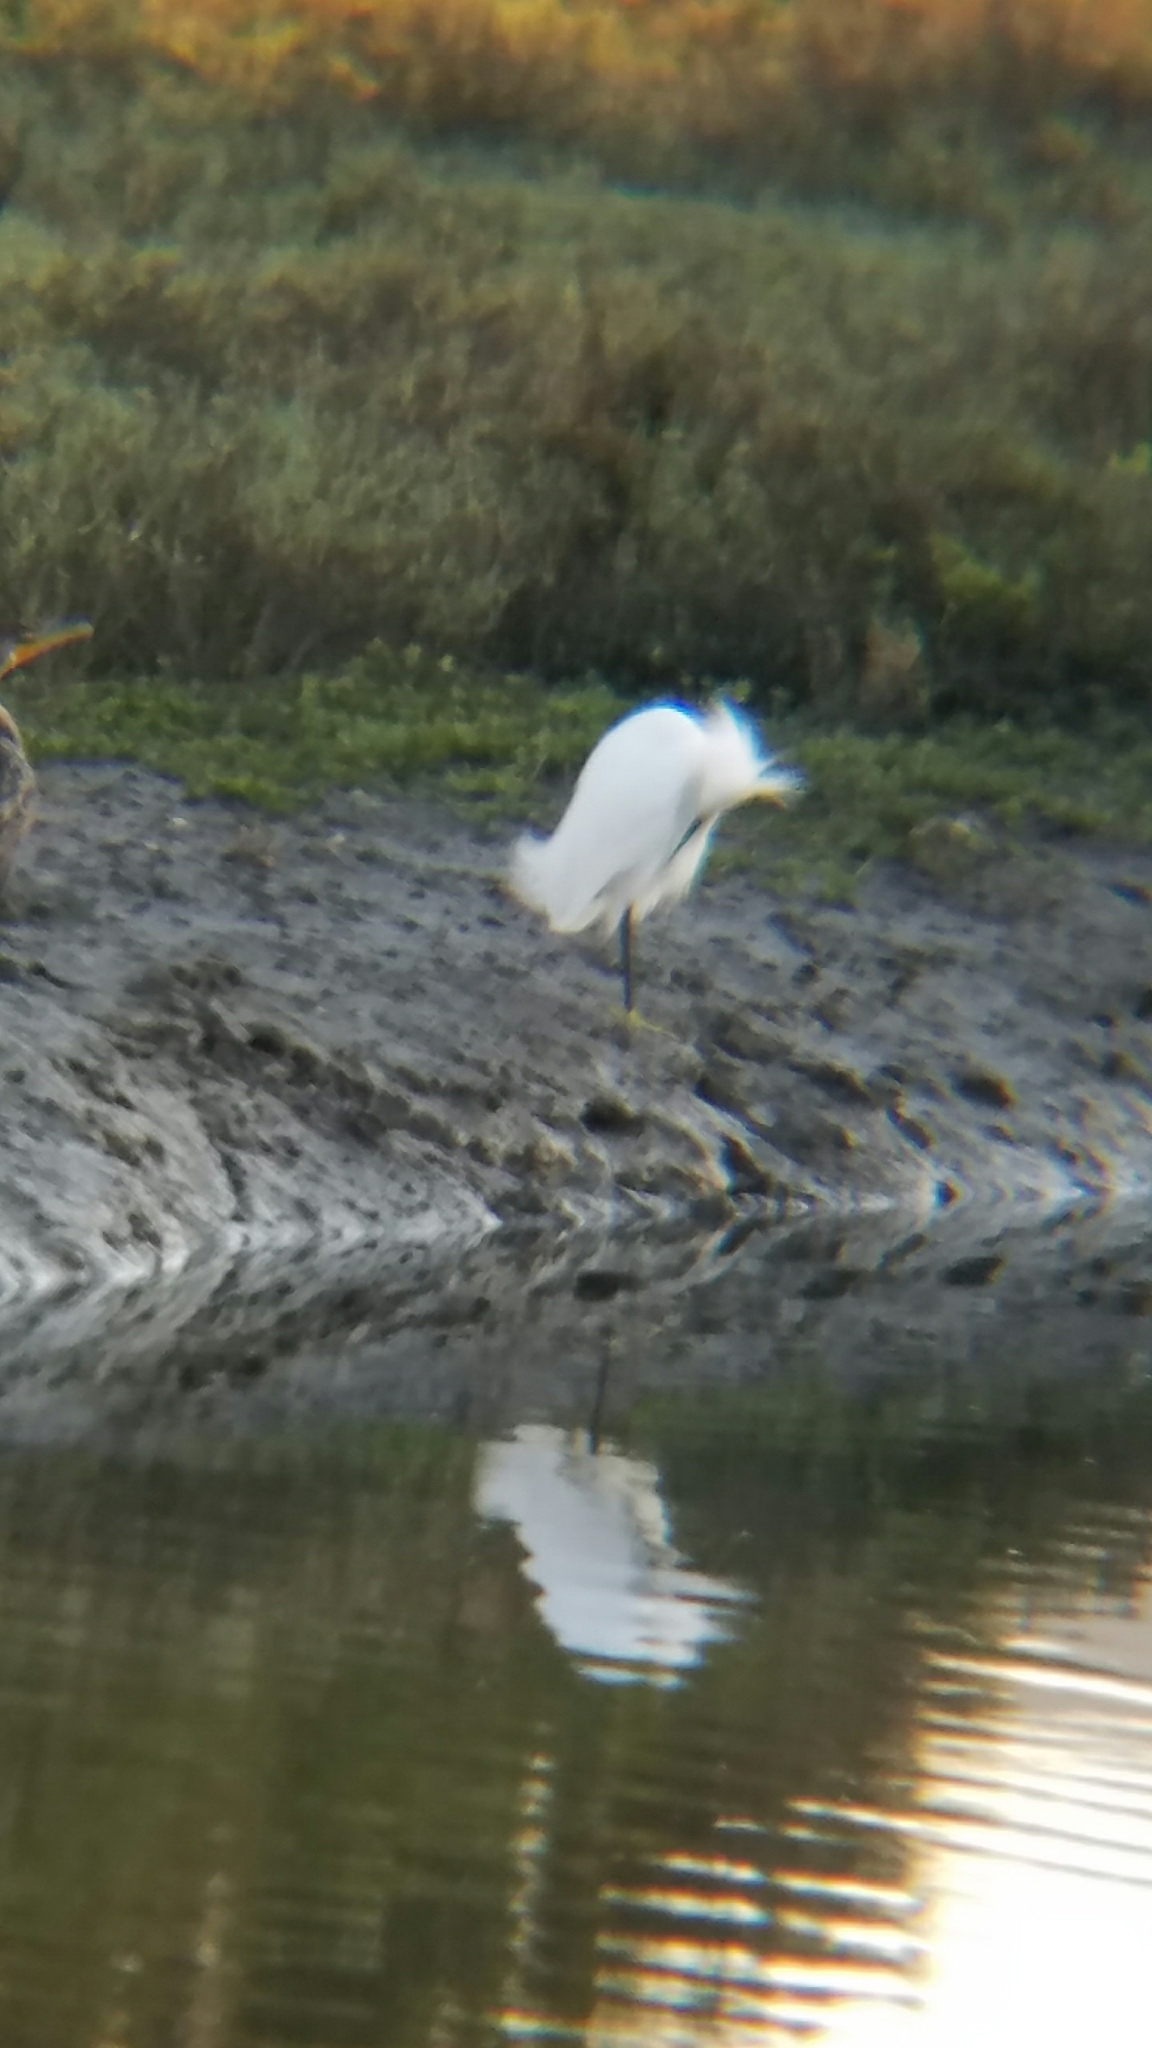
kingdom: Animalia
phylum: Chordata
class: Aves
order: Pelecaniformes
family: Ardeidae
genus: Egretta
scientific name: Egretta thula
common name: Snowy egret
